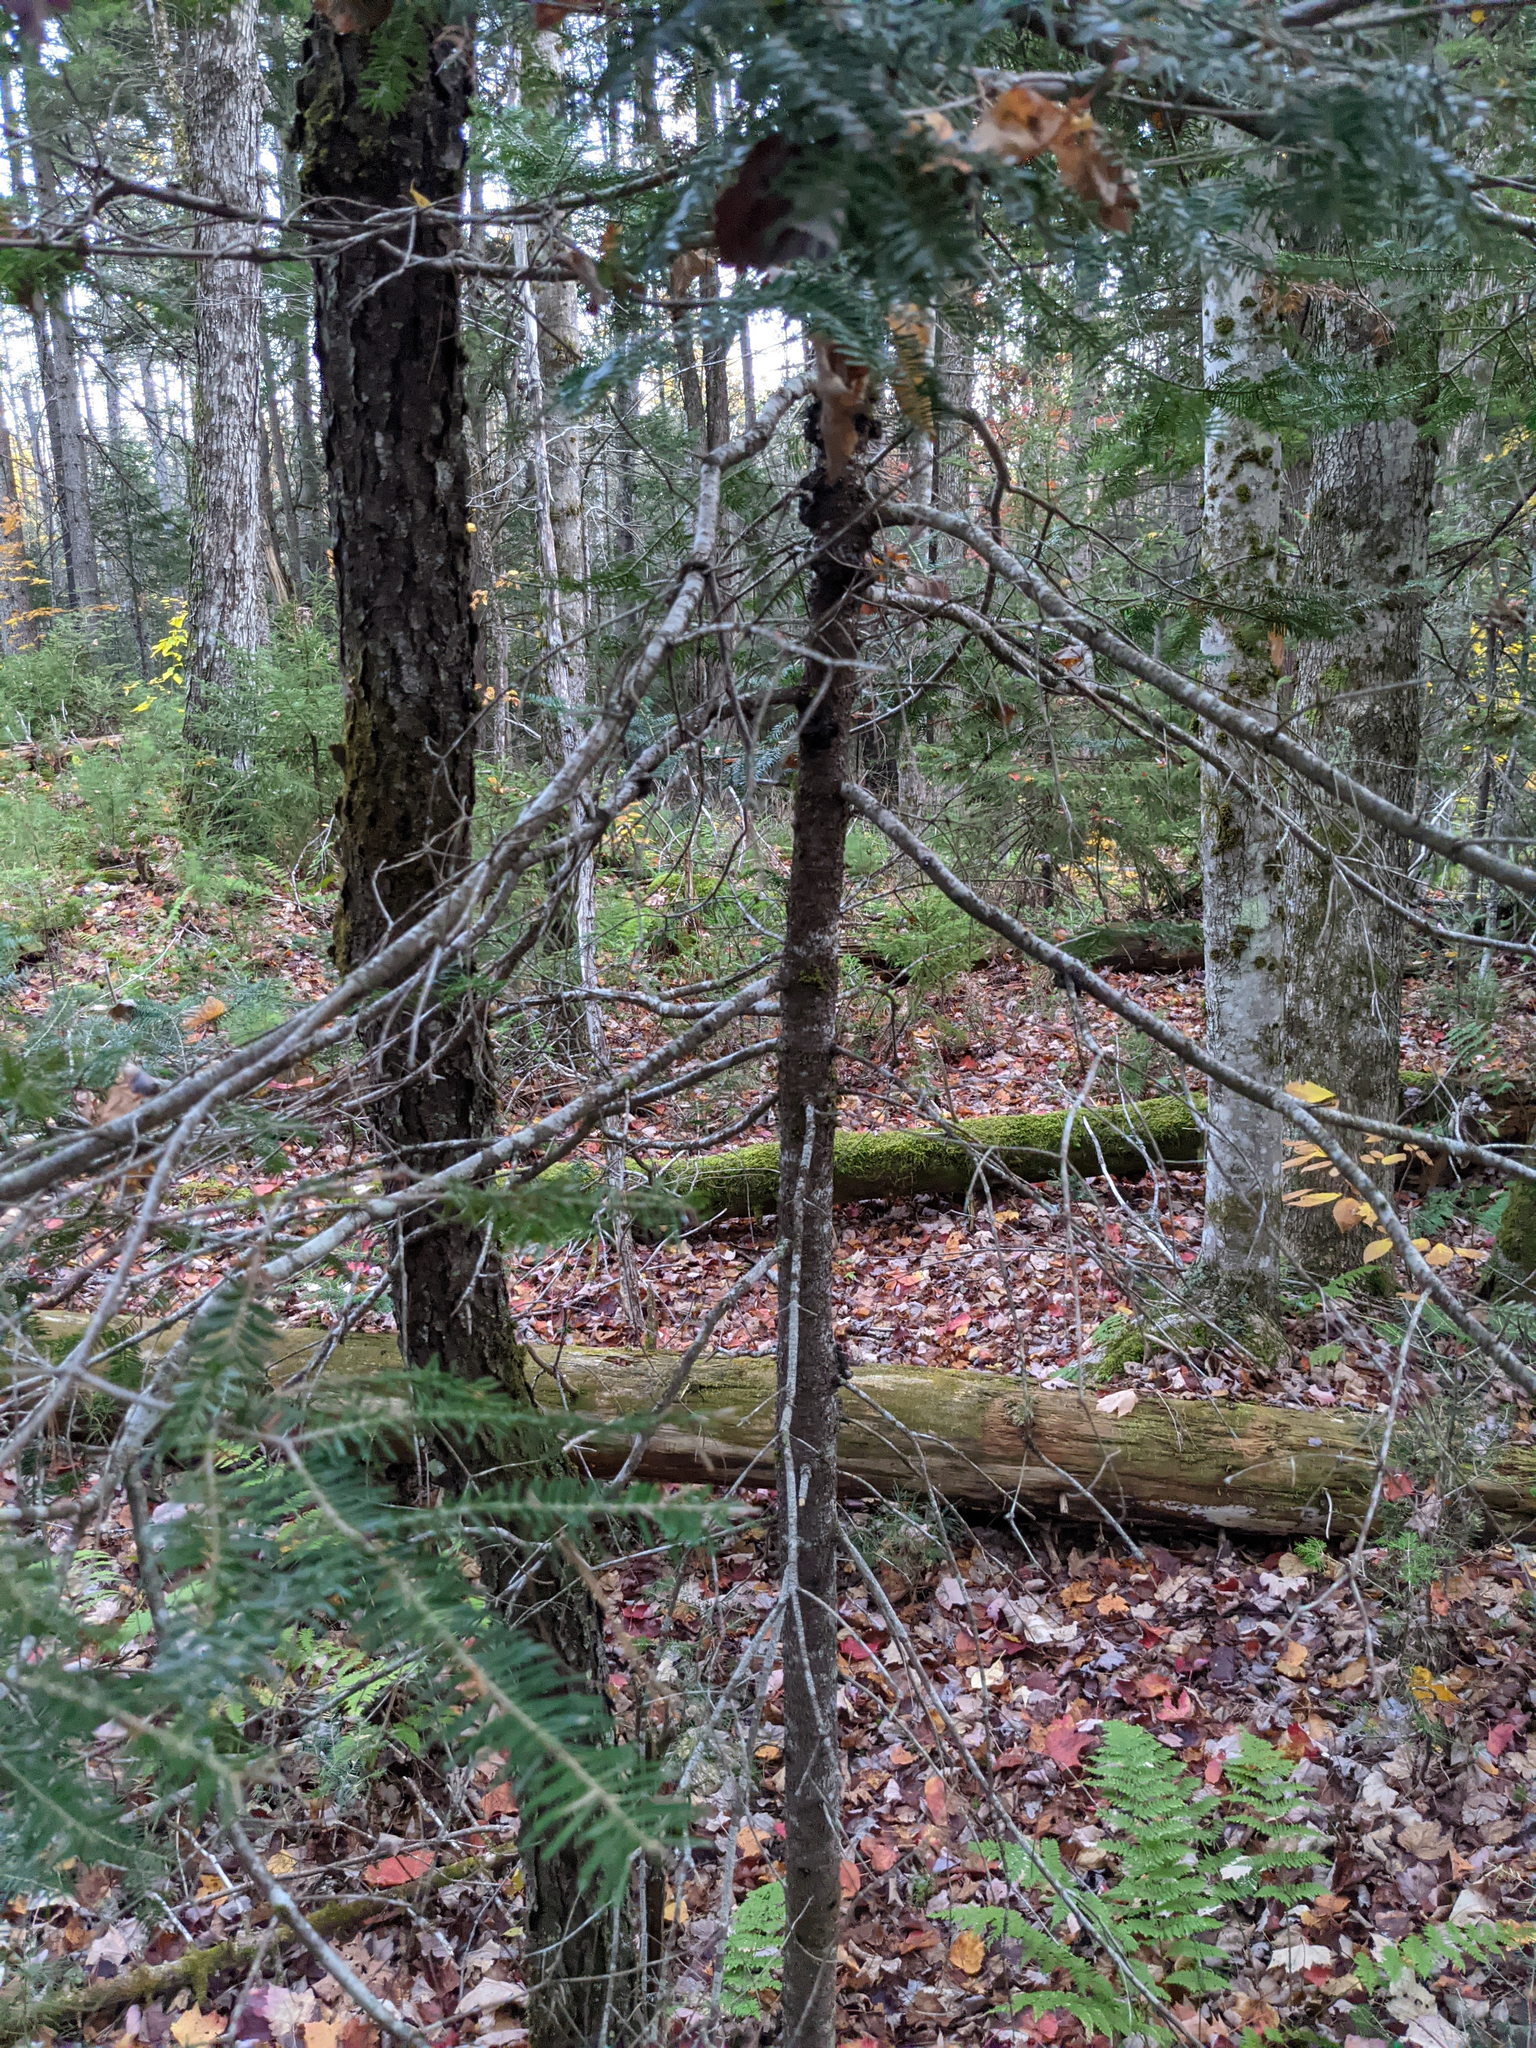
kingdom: Plantae
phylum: Tracheophyta
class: Pinopsida
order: Pinales
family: Pinaceae
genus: Abies
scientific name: Abies balsamea
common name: Balsam fir
